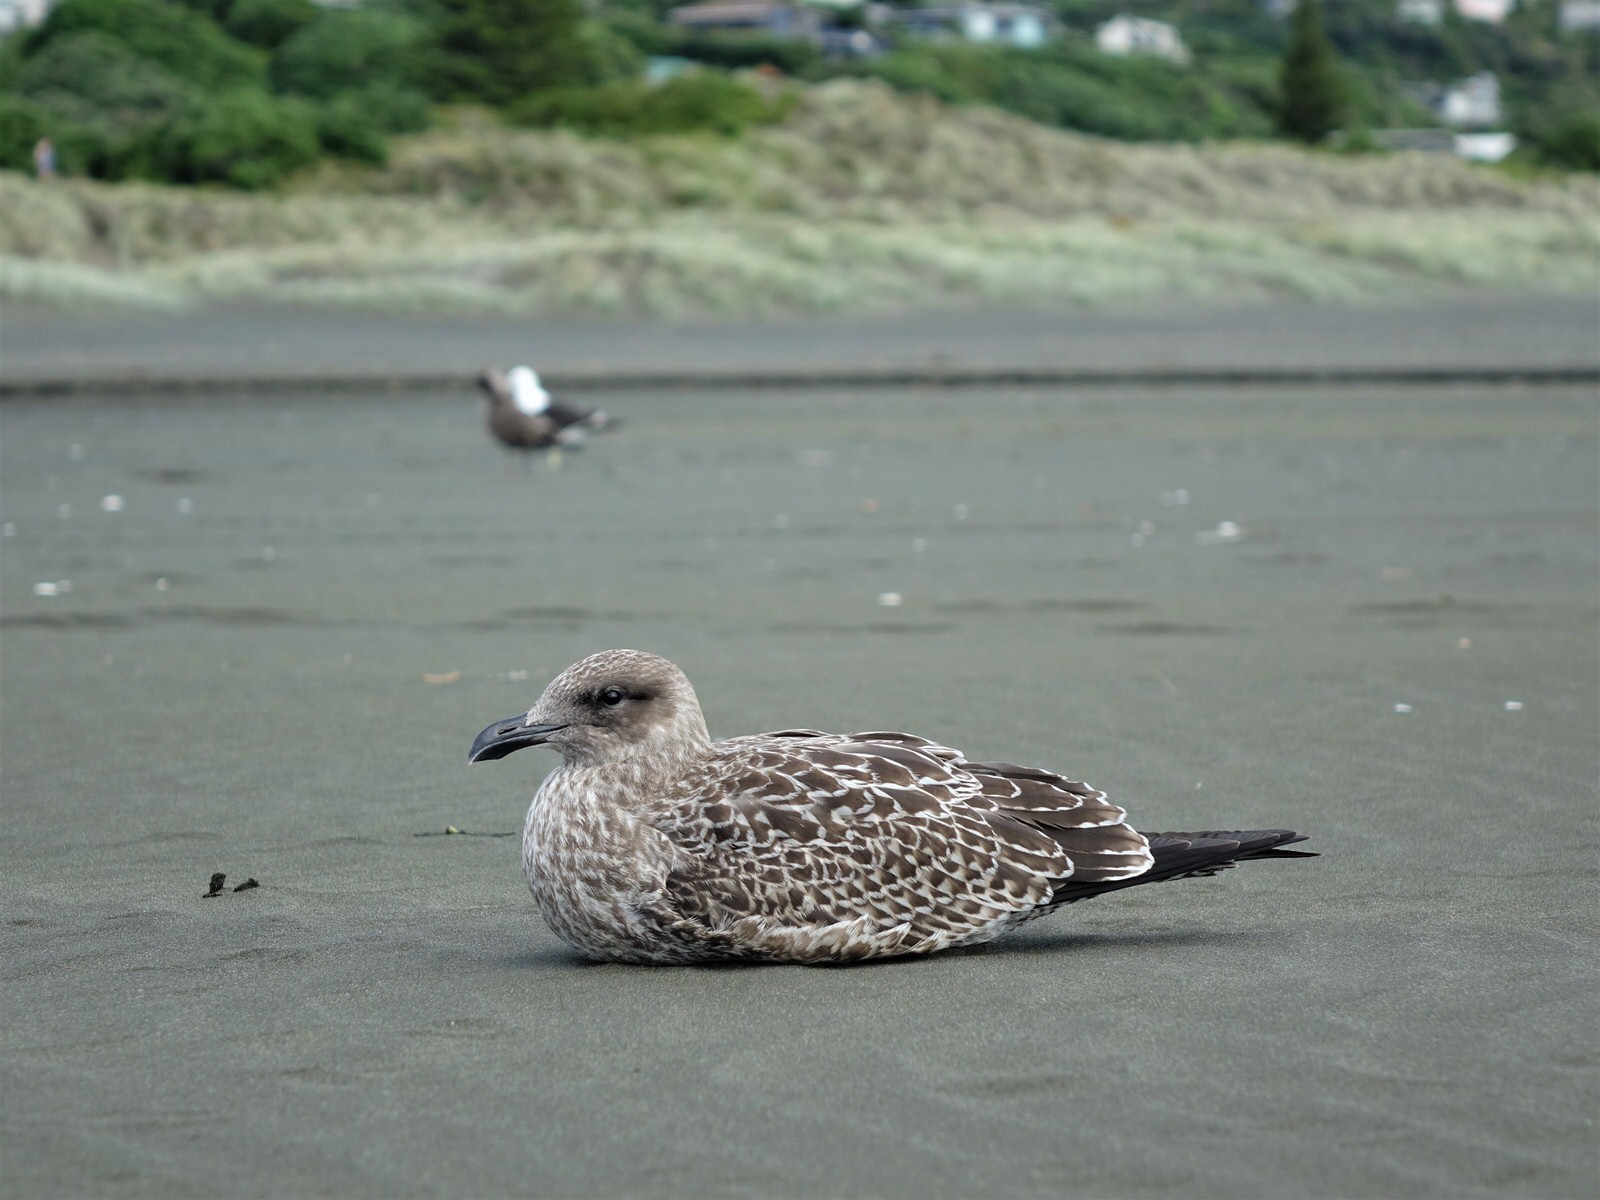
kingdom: Animalia
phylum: Chordata
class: Aves
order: Charadriiformes
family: Laridae
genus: Larus
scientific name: Larus dominicanus
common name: Kelp gull
